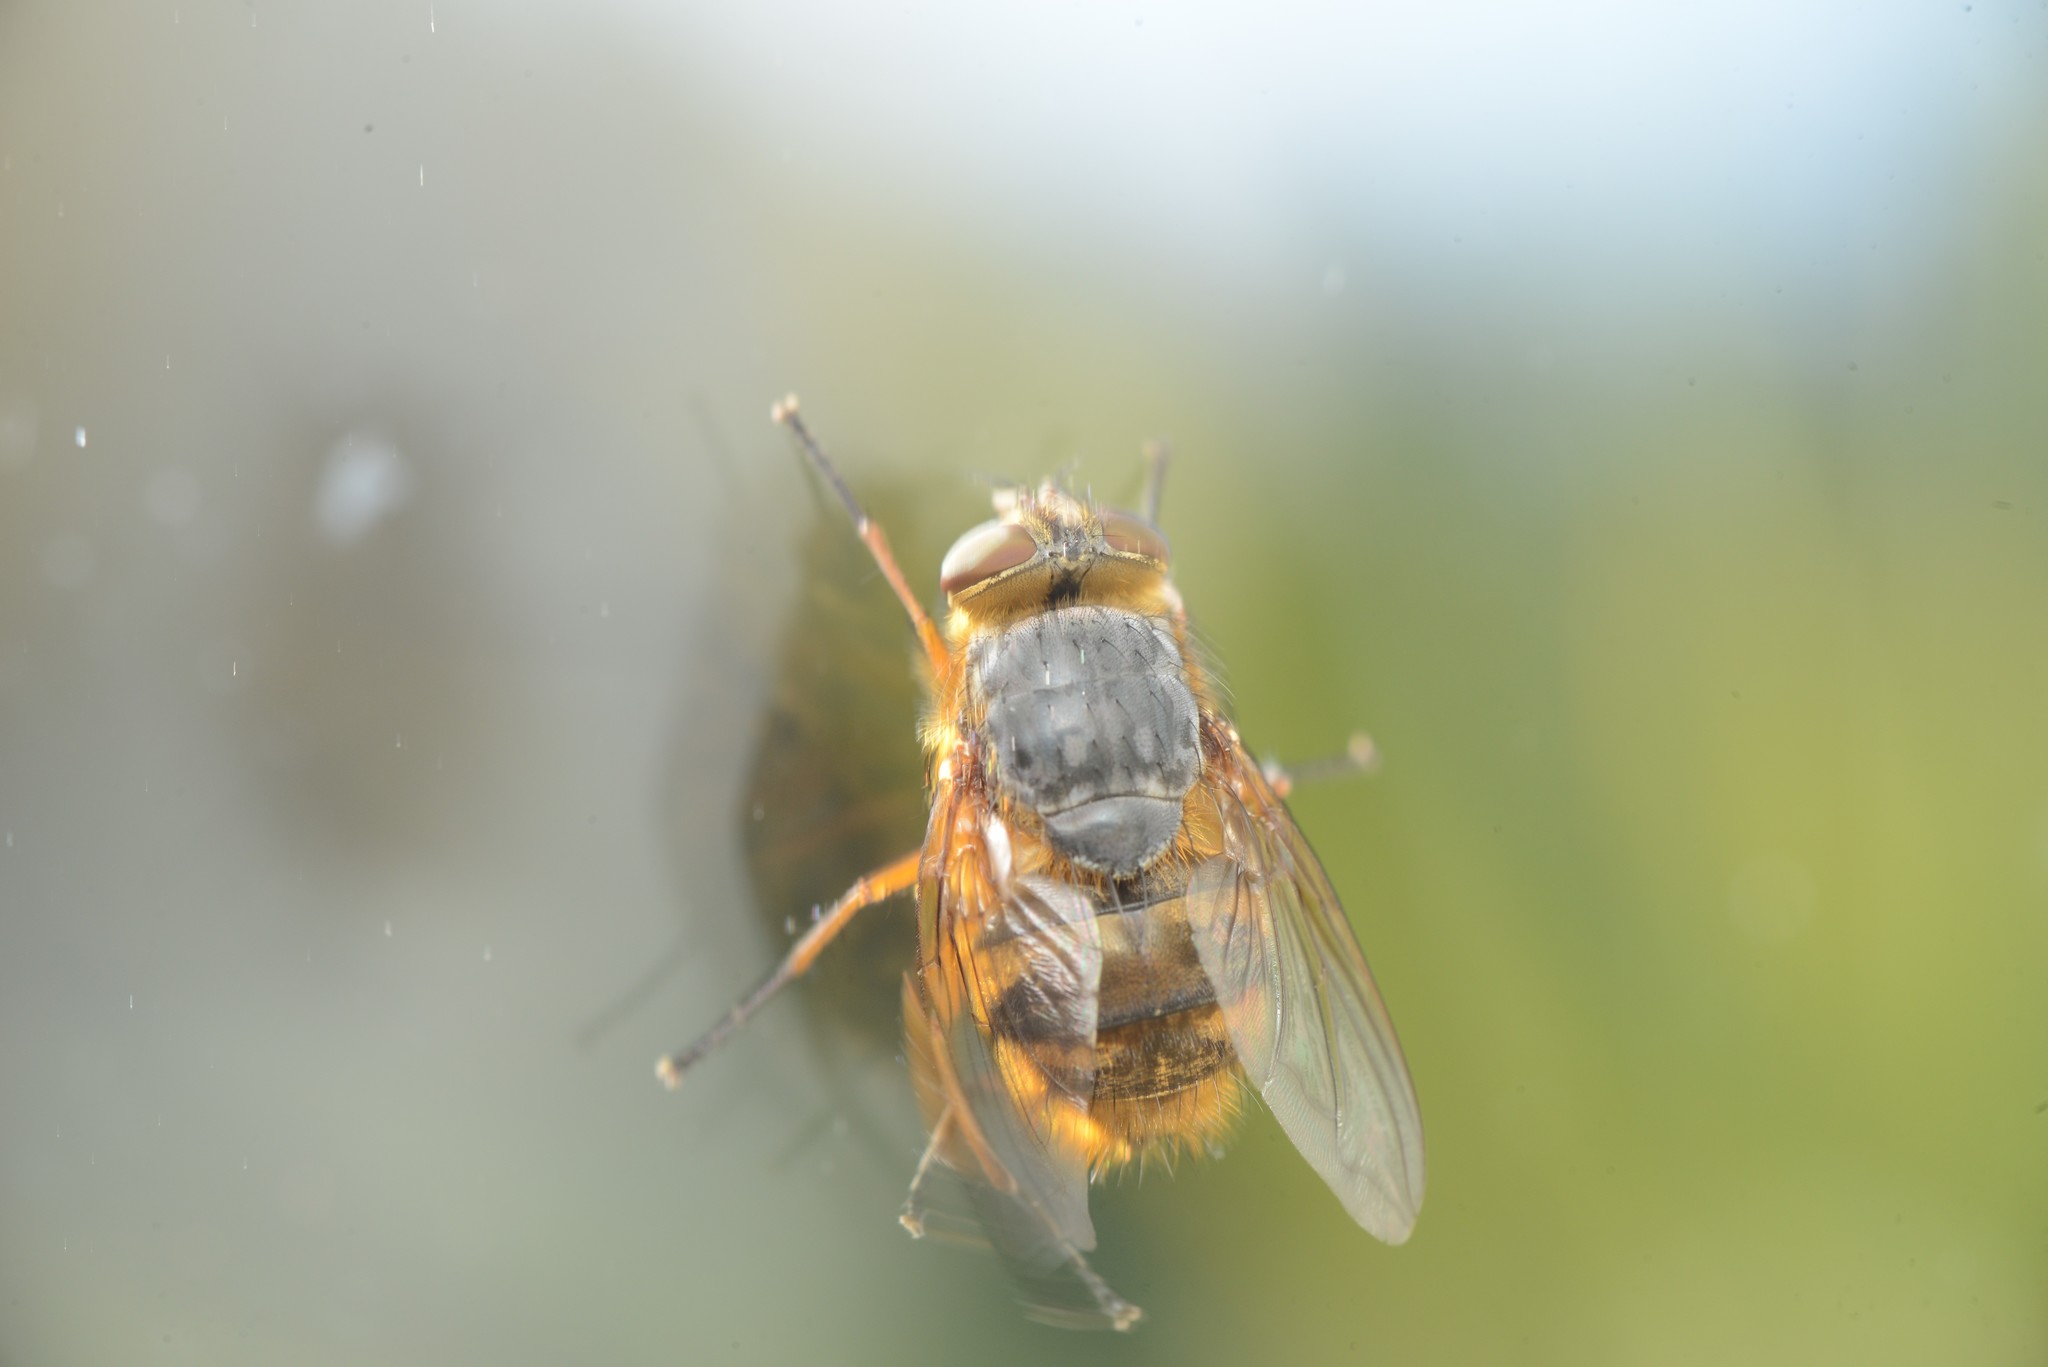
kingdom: Animalia
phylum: Arthropoda
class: Insecta
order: Diptera
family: Calliphoridae
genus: Calliphora
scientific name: Calliphora hilli
